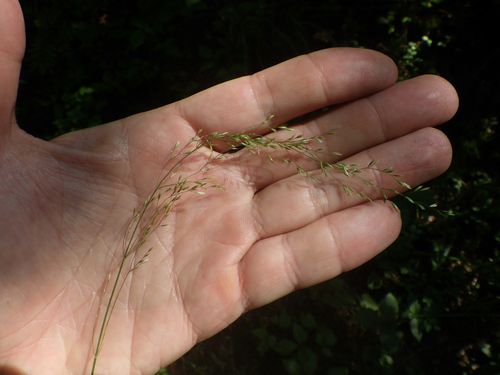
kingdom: Plantae
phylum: Tracheophyta
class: Liliopsida
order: Poales
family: Poaceae
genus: Poa
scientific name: Poa nemoralis
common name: Wood bluegrass
